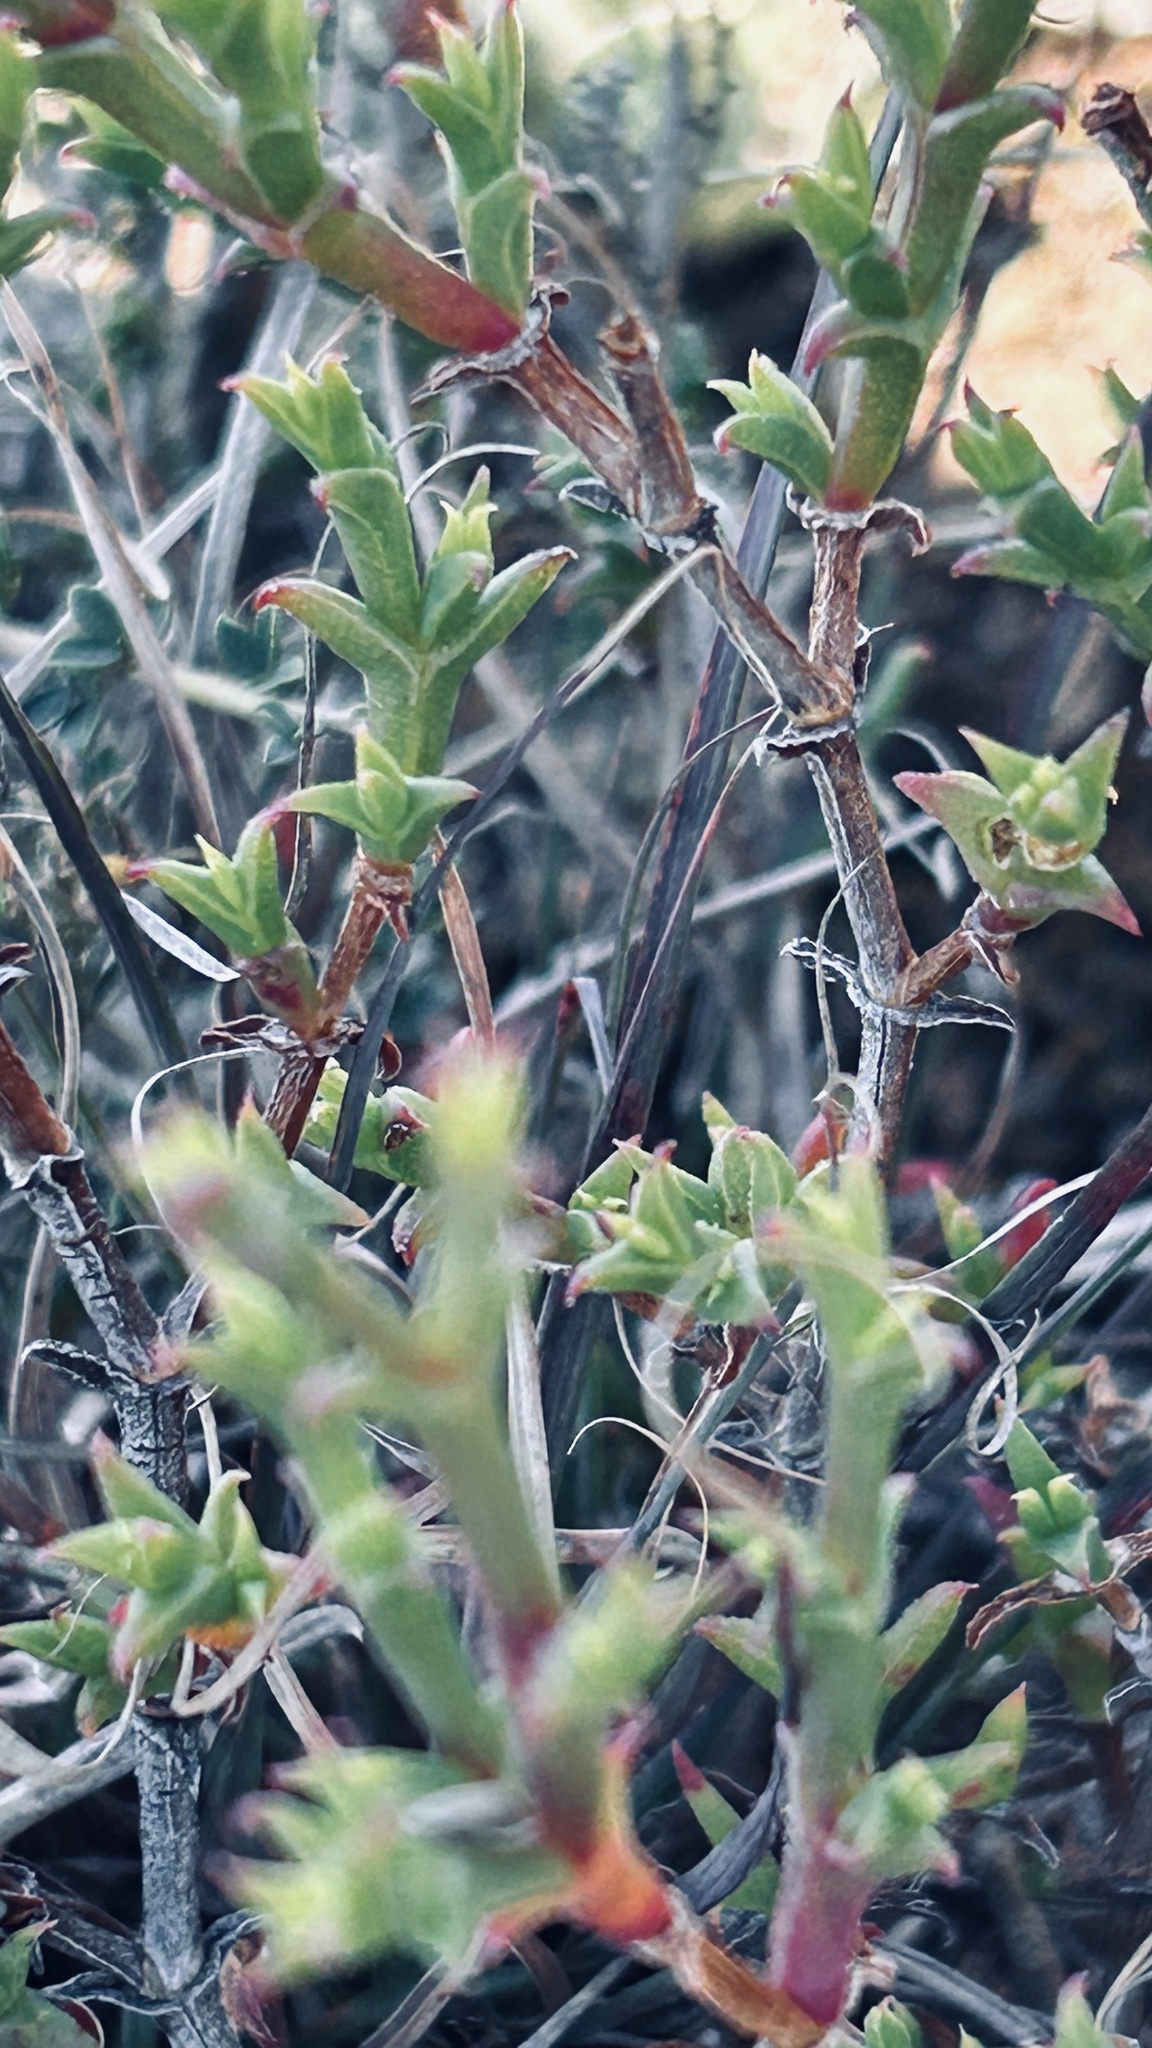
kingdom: Plantae
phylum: Tracheophyta
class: Magnoliopsida
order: Caryophyllales
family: Aizoaceae
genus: Ruschia
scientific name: Ruschia tenella
